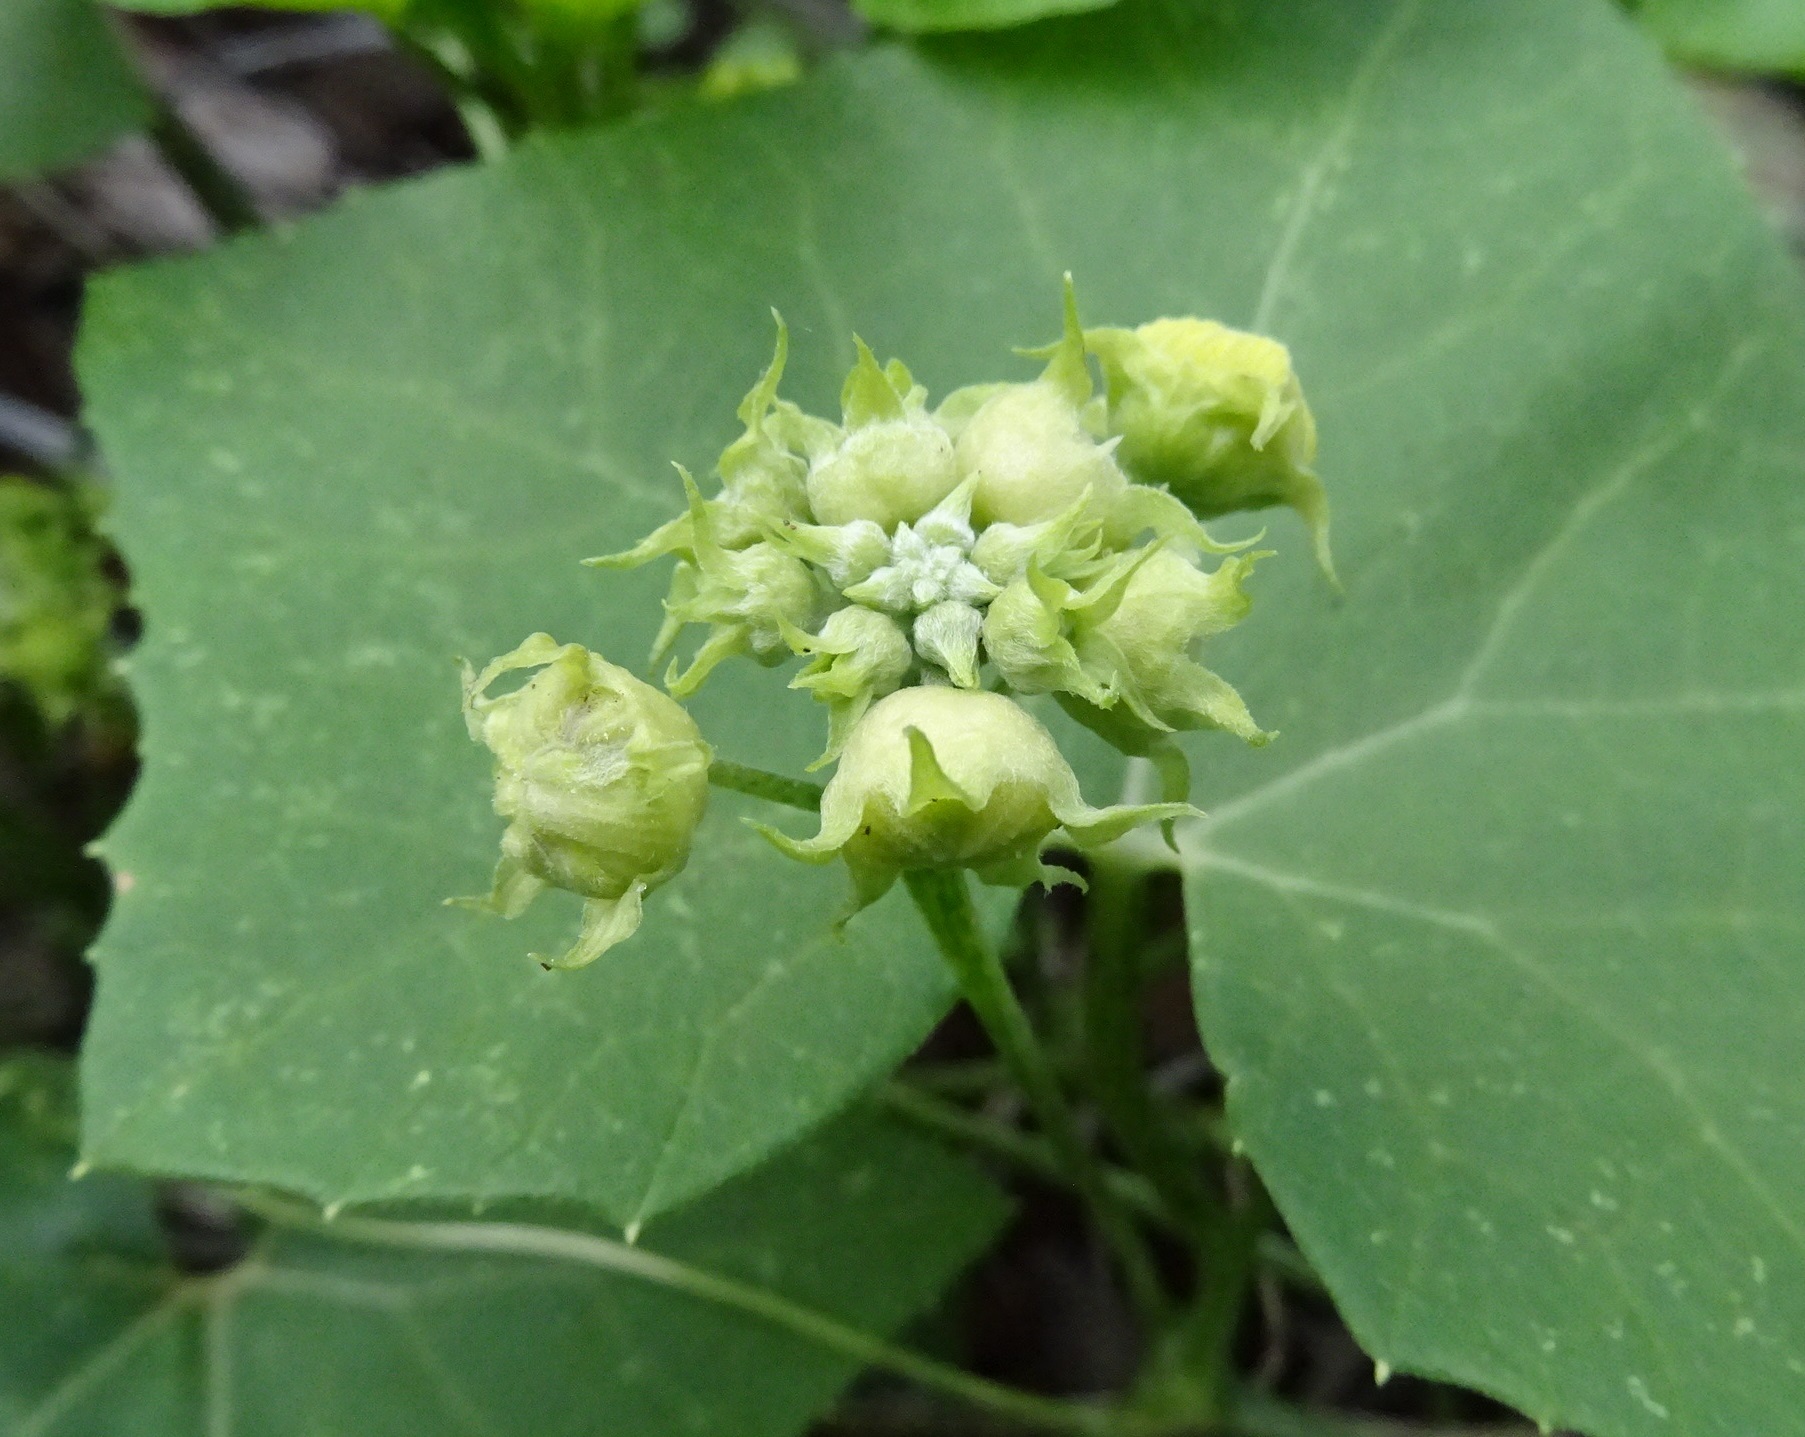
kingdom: Plantae
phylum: Tracheophyta
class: Magnoliopsida
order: Cucurbitales
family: Cucurbitaceae
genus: Bryonia
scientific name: Bryonia verrucosa
